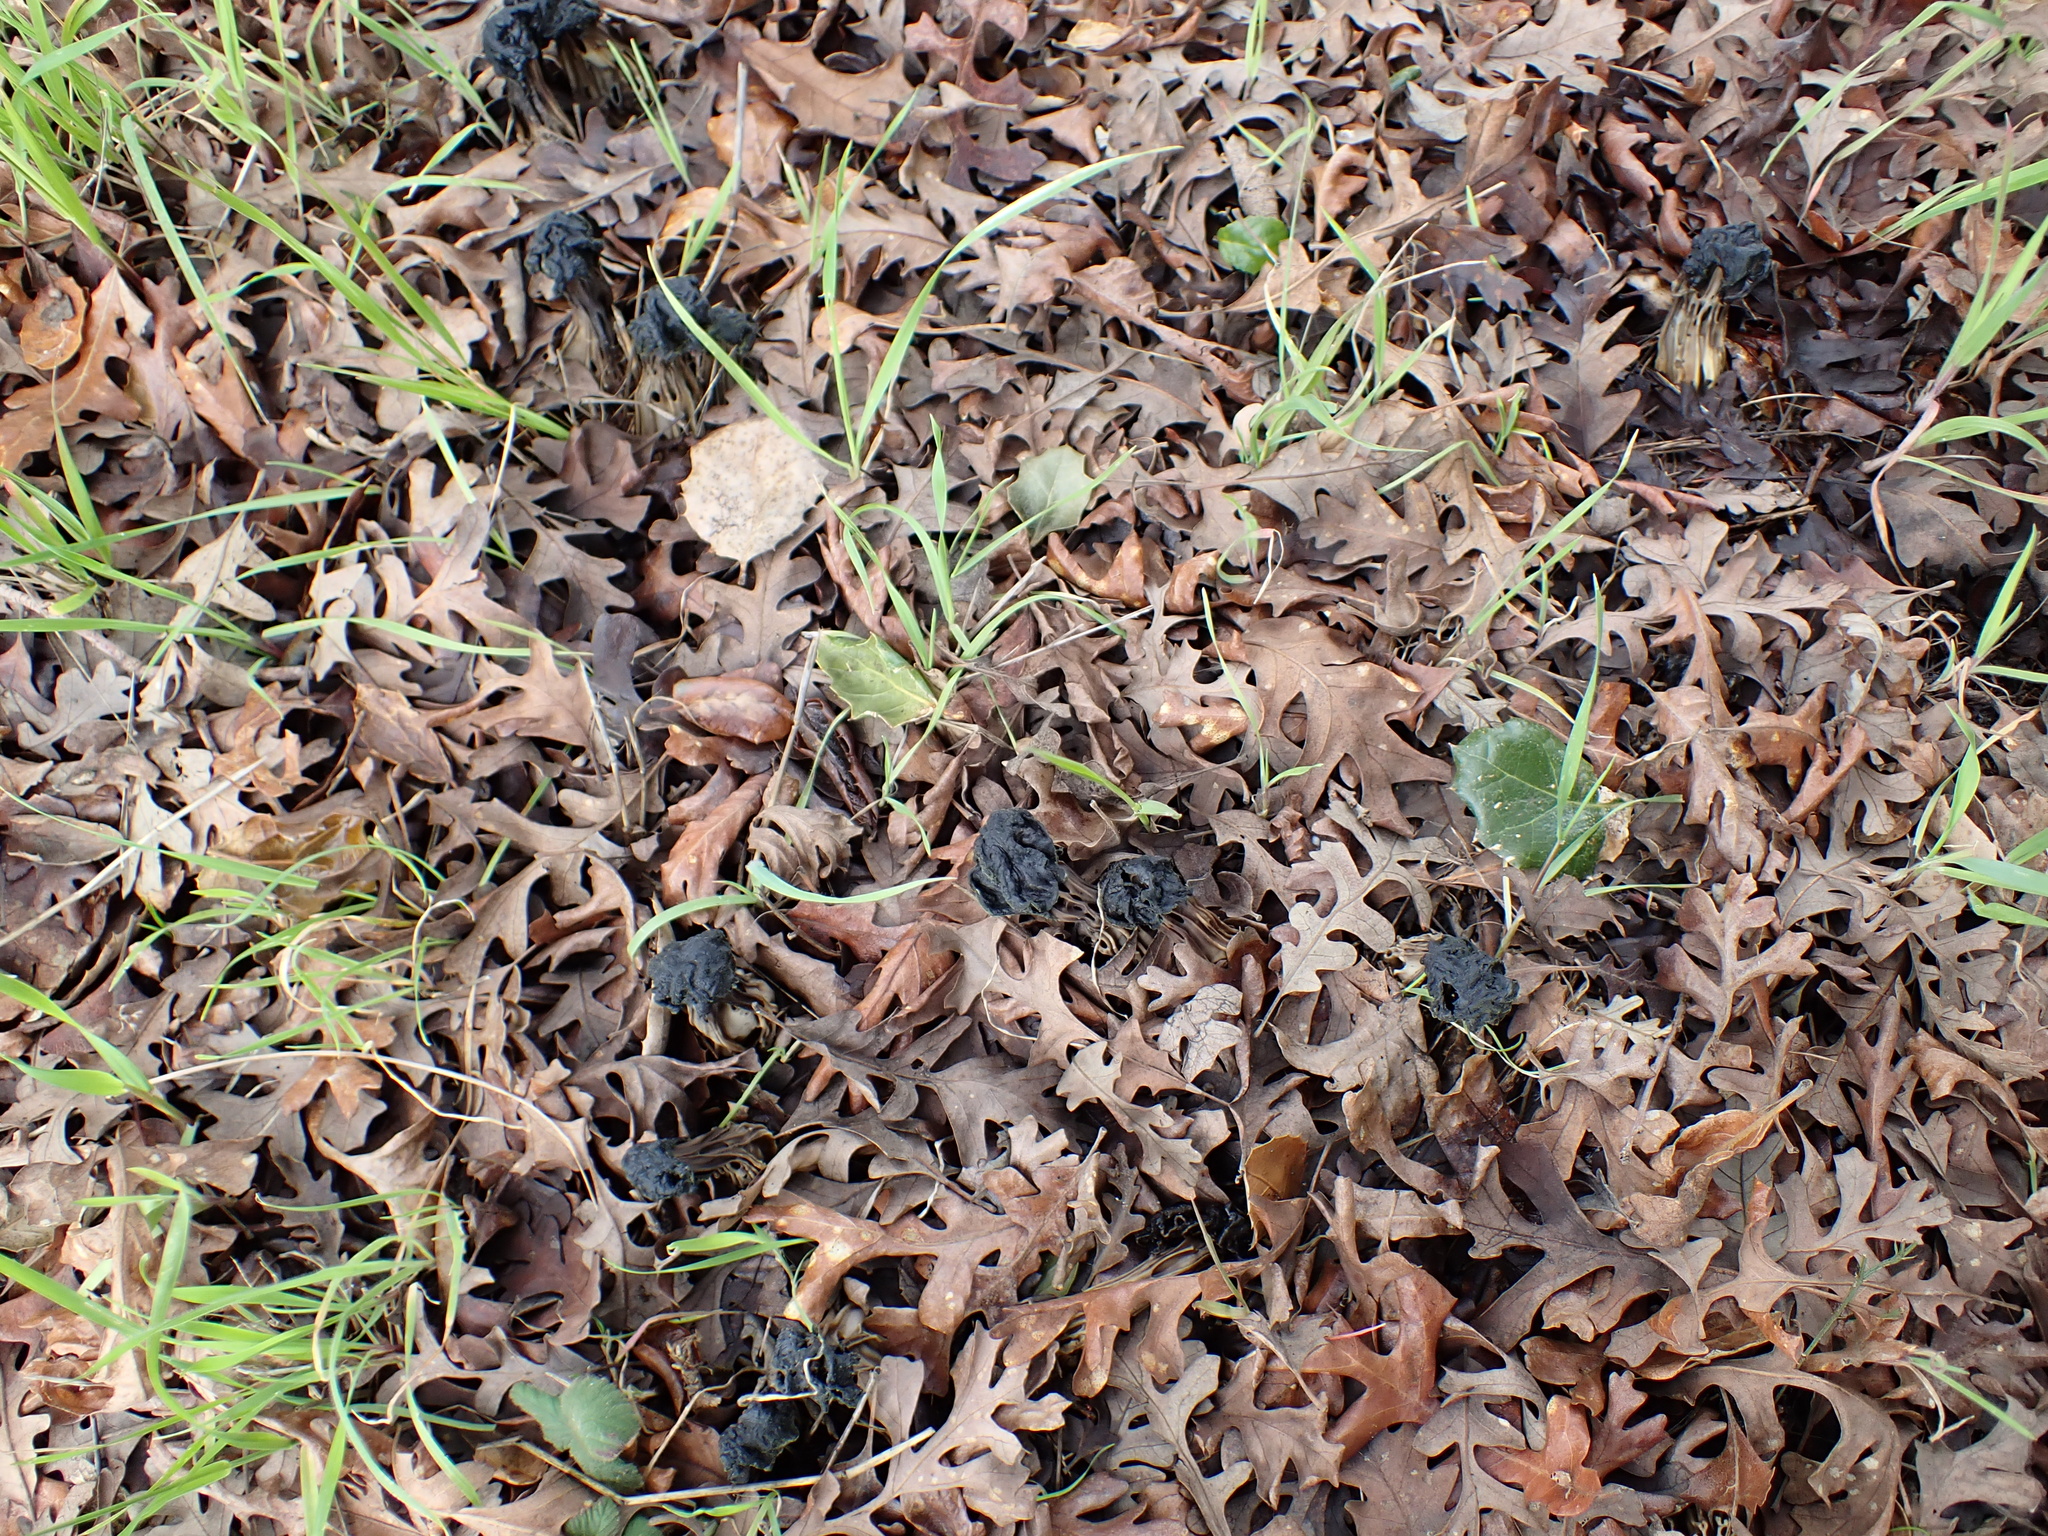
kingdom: Fungi
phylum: Ascomycota
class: Pezizomycetes
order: Pezizales
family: Helvellaceae
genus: Helvella
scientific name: Helvella dryophila
